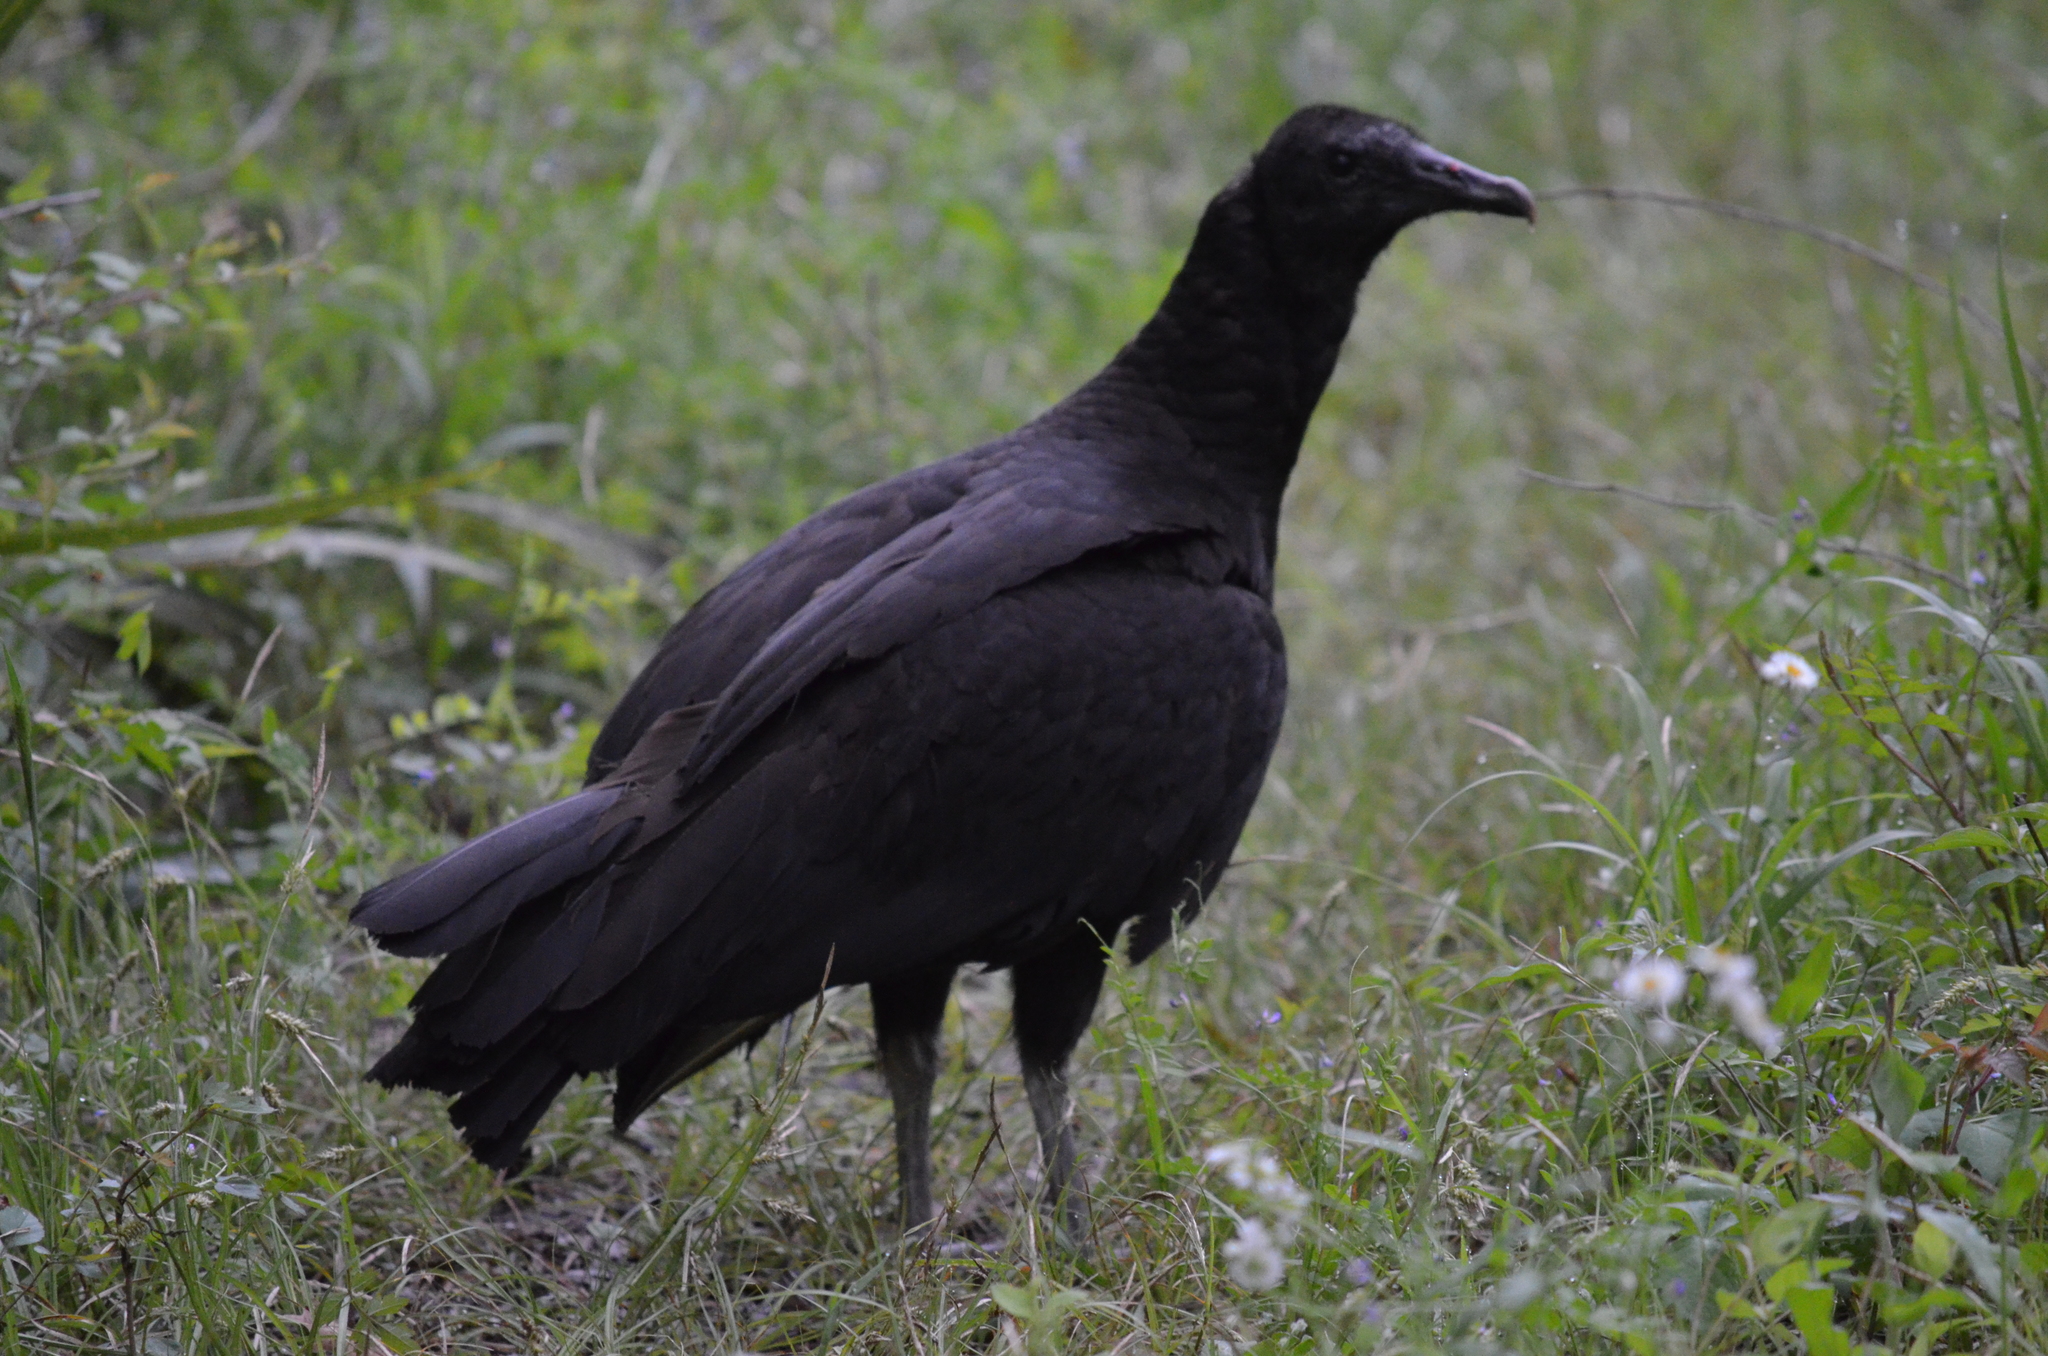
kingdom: Animalia
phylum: Chordata
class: Aves
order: Accipitriformes
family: Cathartidae
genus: Coragyps
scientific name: Coragyps atratus
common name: Black vulture
